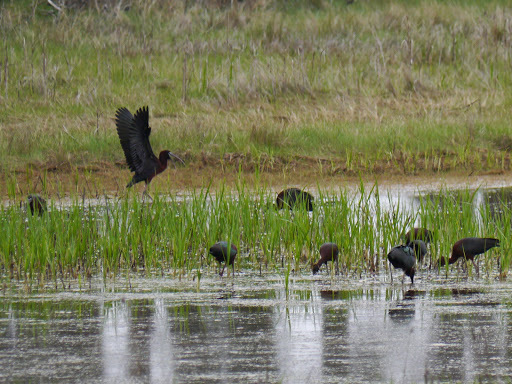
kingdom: Animalia
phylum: Chordata
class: Aves
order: Pelecaniformes
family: Threskiornithidae
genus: Plegadis
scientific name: Plegadis falcinellus
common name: Glossy ibis
